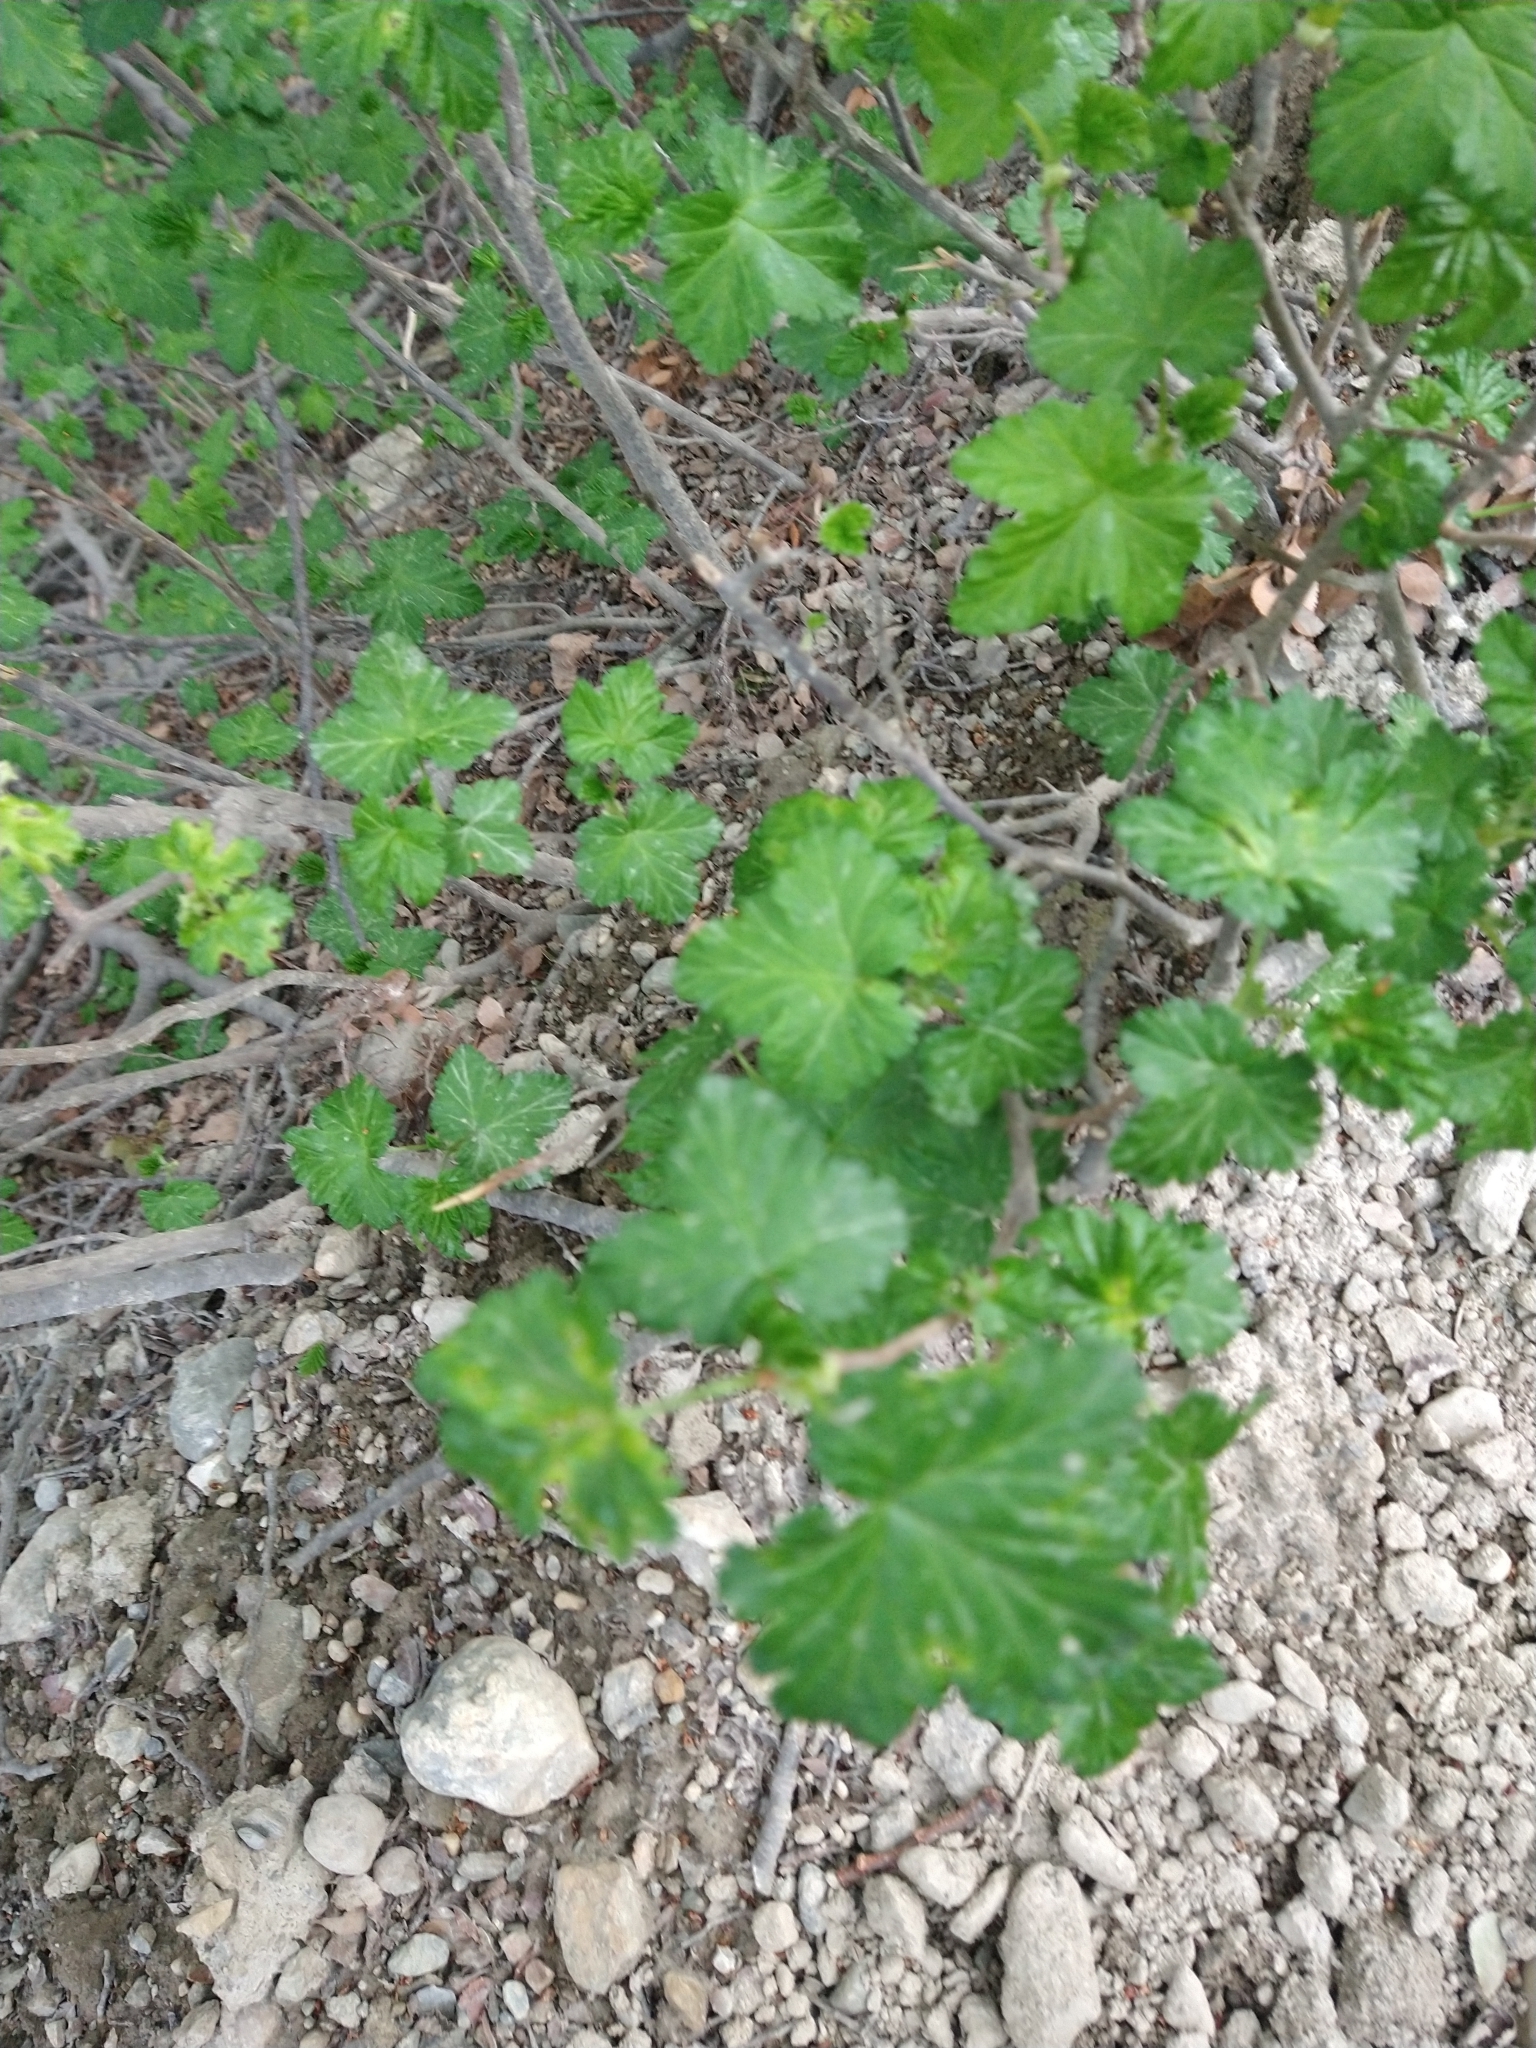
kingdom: Plantae
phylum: Tracheophyta
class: Magnoliopsida
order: Saxifragales
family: Grossulariaceae
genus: Ribes
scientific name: Ribes magellanicum
